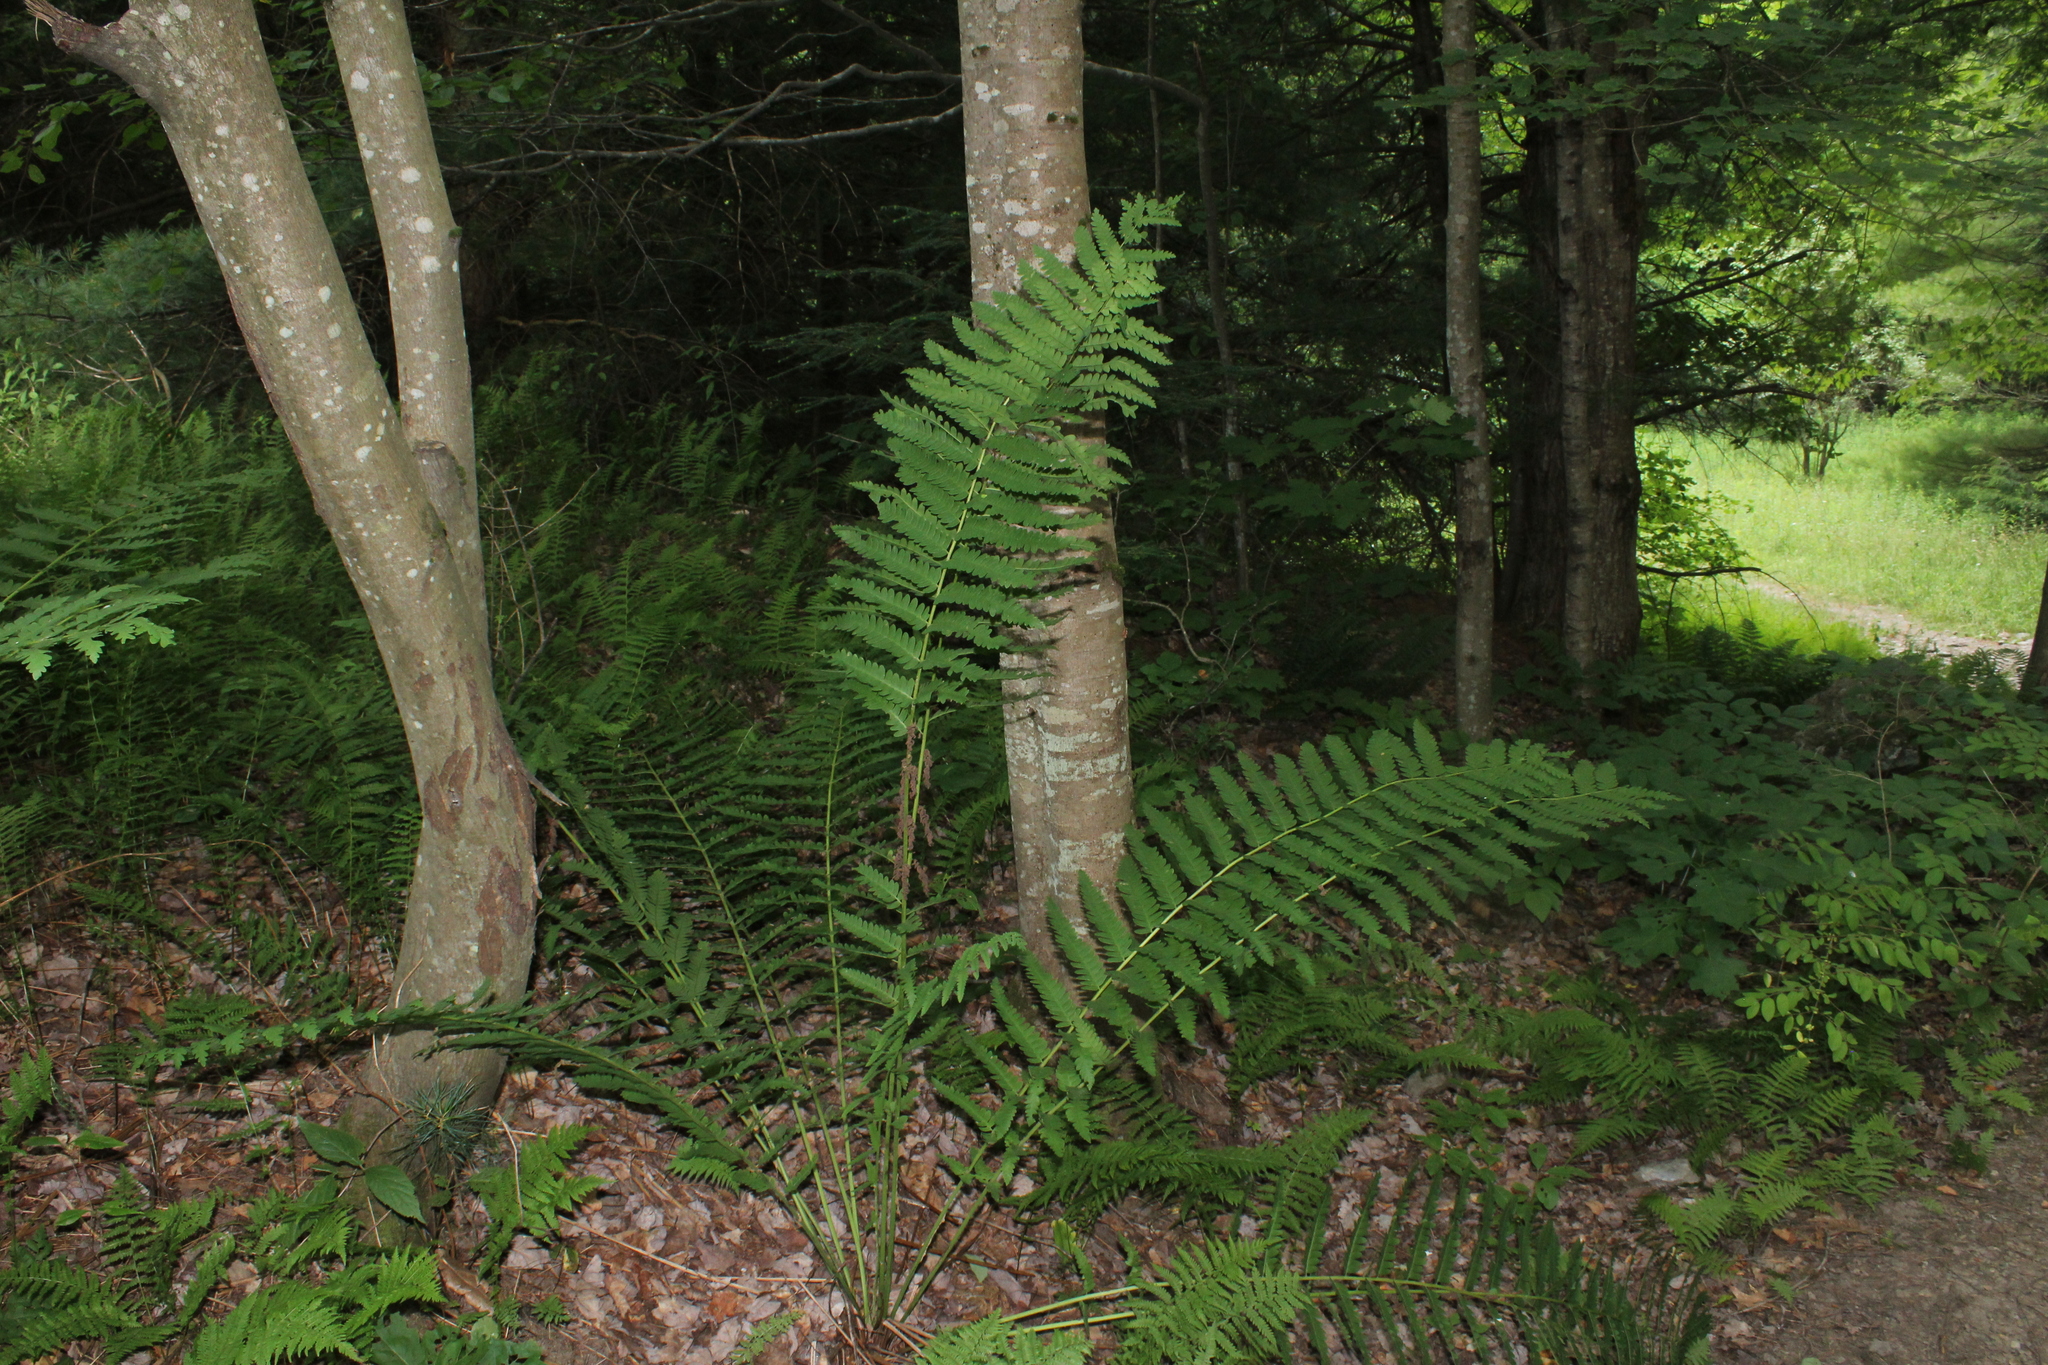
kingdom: Plantae
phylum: Tracheophyta
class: Polypodiopsida
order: Osmundales
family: Osmundaceae
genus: Claytosmunda
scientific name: Claytosmunda claytoniana
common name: Clayton's fern
